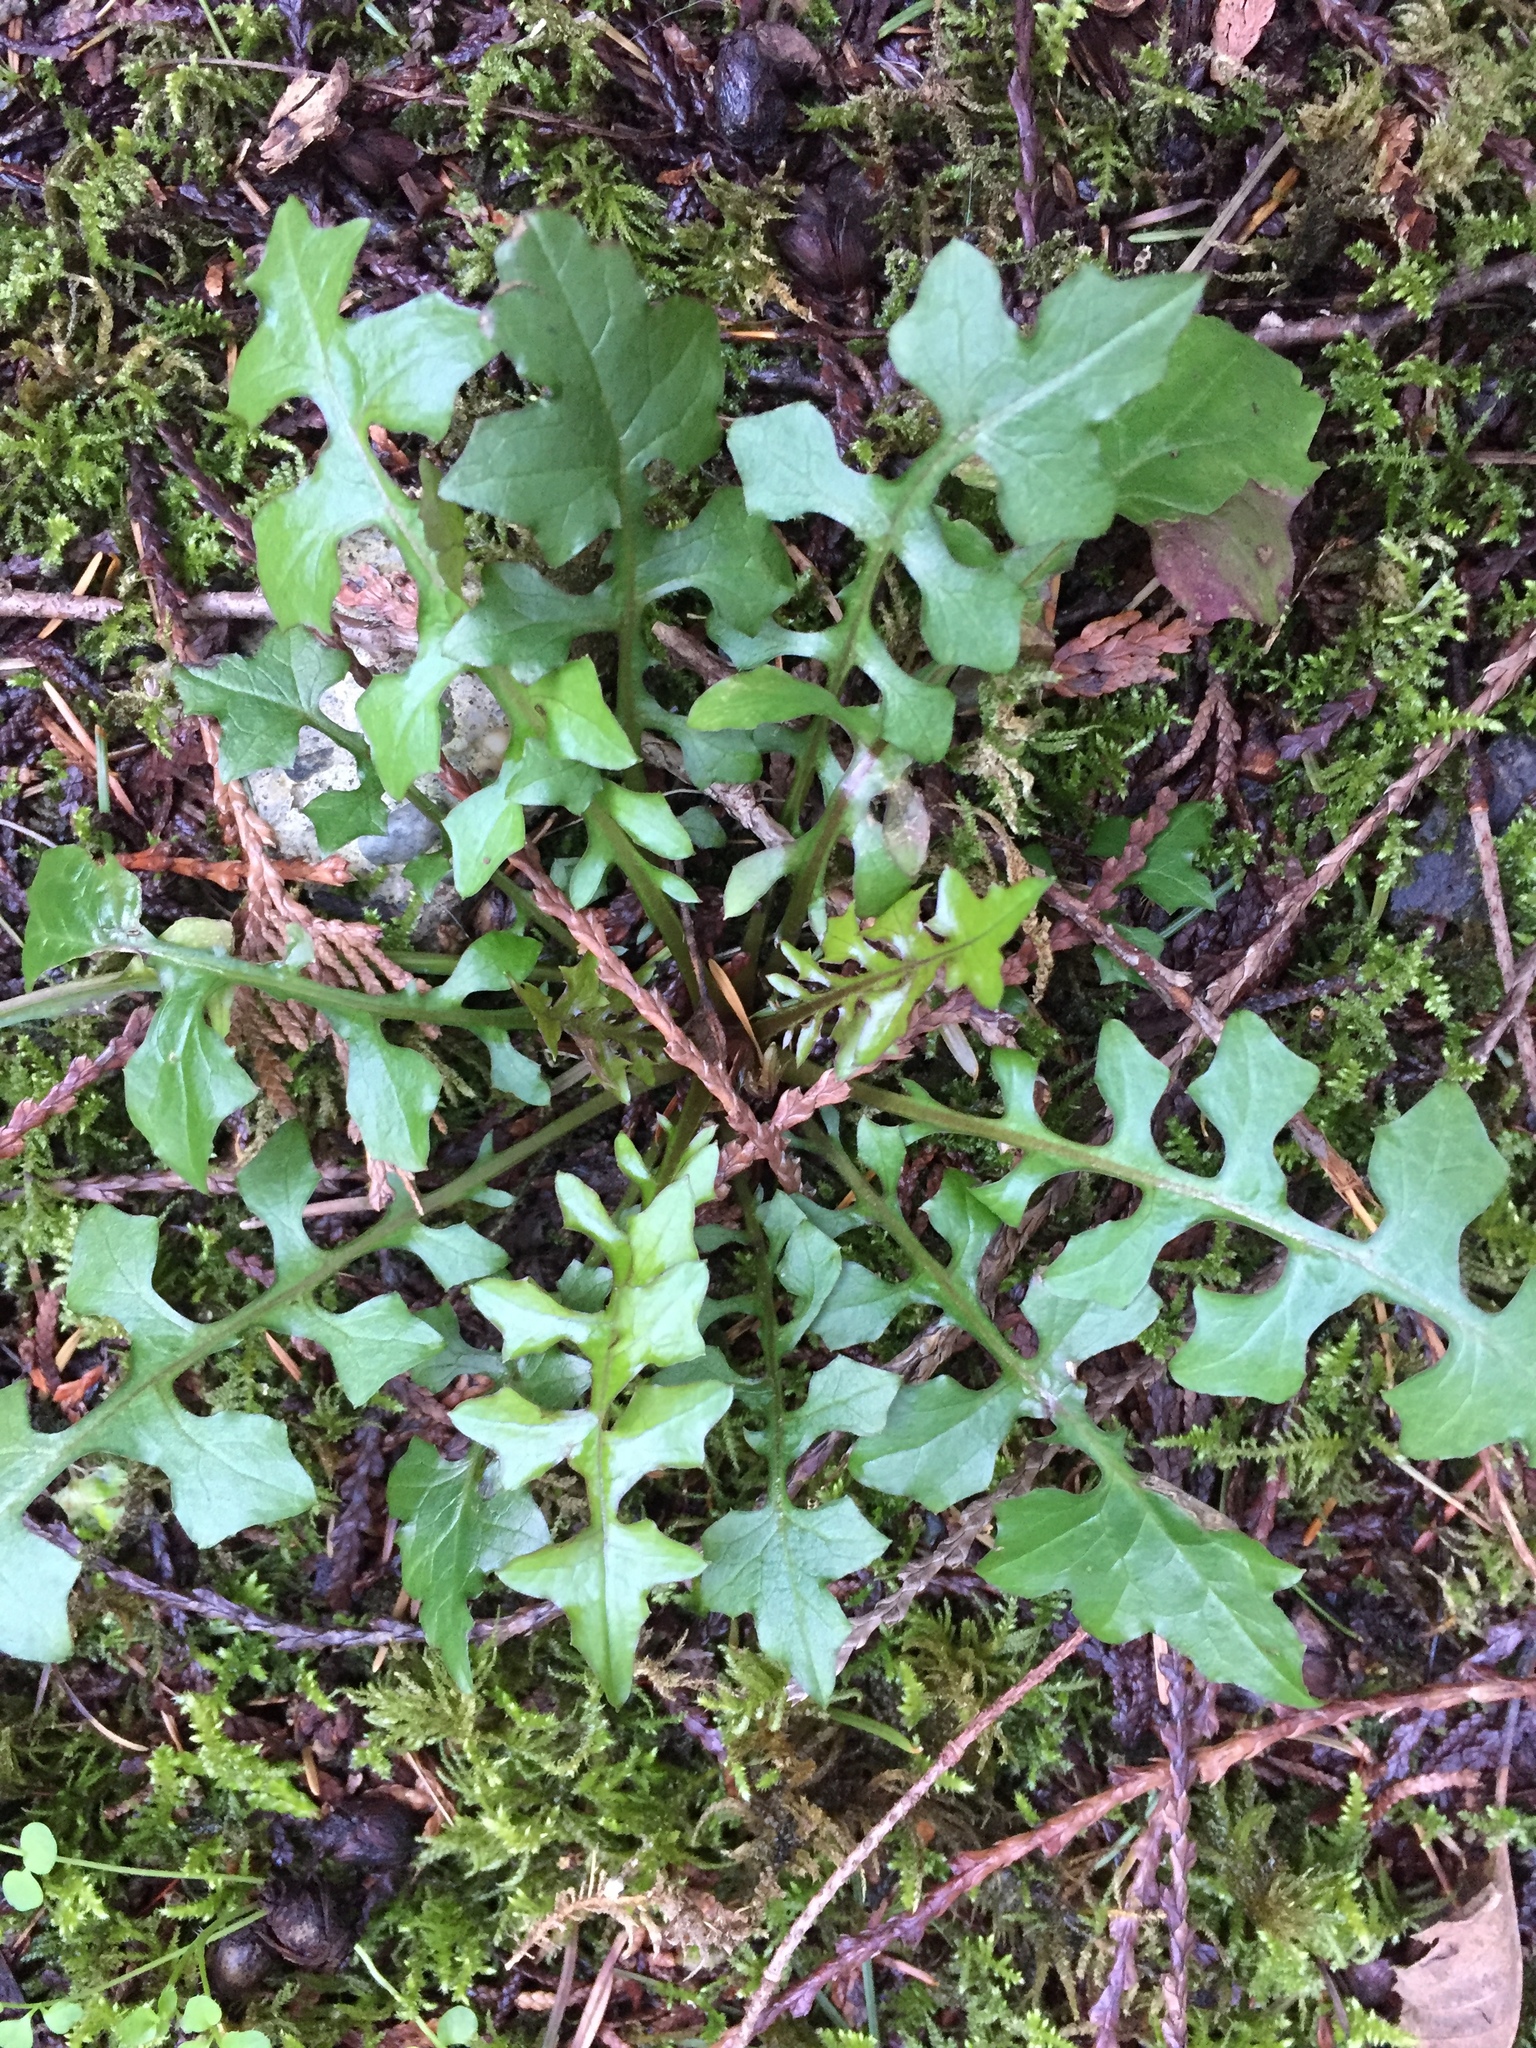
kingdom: Plantae
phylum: Tracheophyta
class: Magnoliopsida
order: Asterales
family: Asteraceae
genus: Mycelis
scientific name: Mycelis muralis
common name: Wall lettuce
